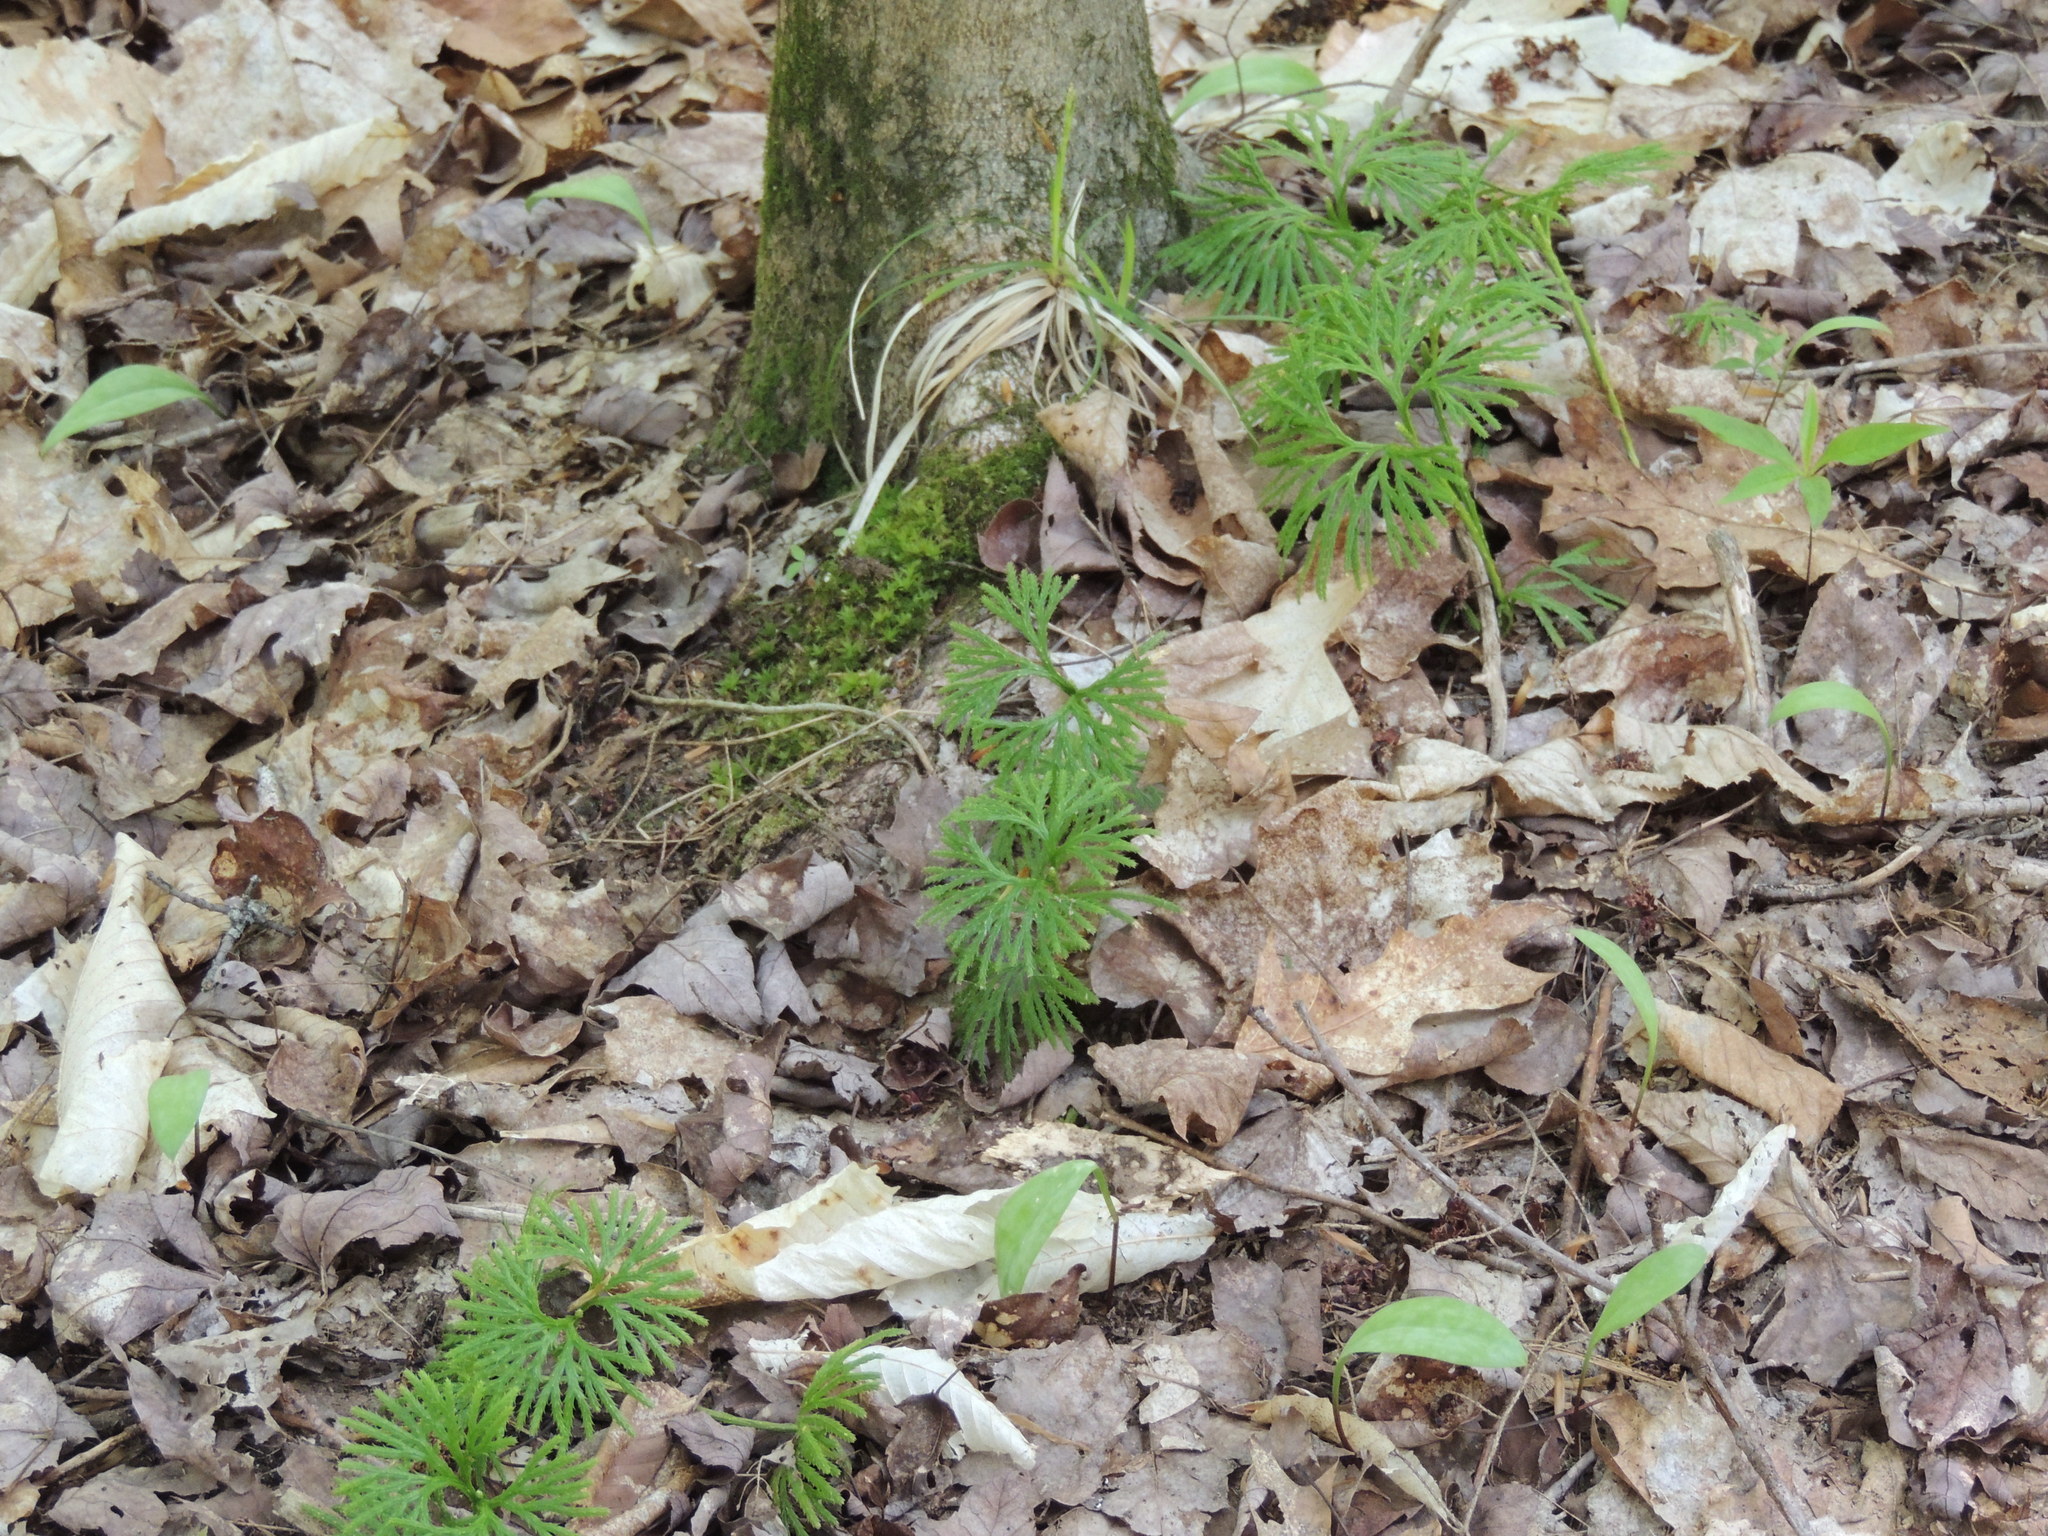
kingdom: Plantae
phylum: Tracheophyta
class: Lycopodiopsida
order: Lycopodiales
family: Lycopodiaceae
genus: Diphasiastrum
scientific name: Diphasiastrum digitatum
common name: Southern running-pine
